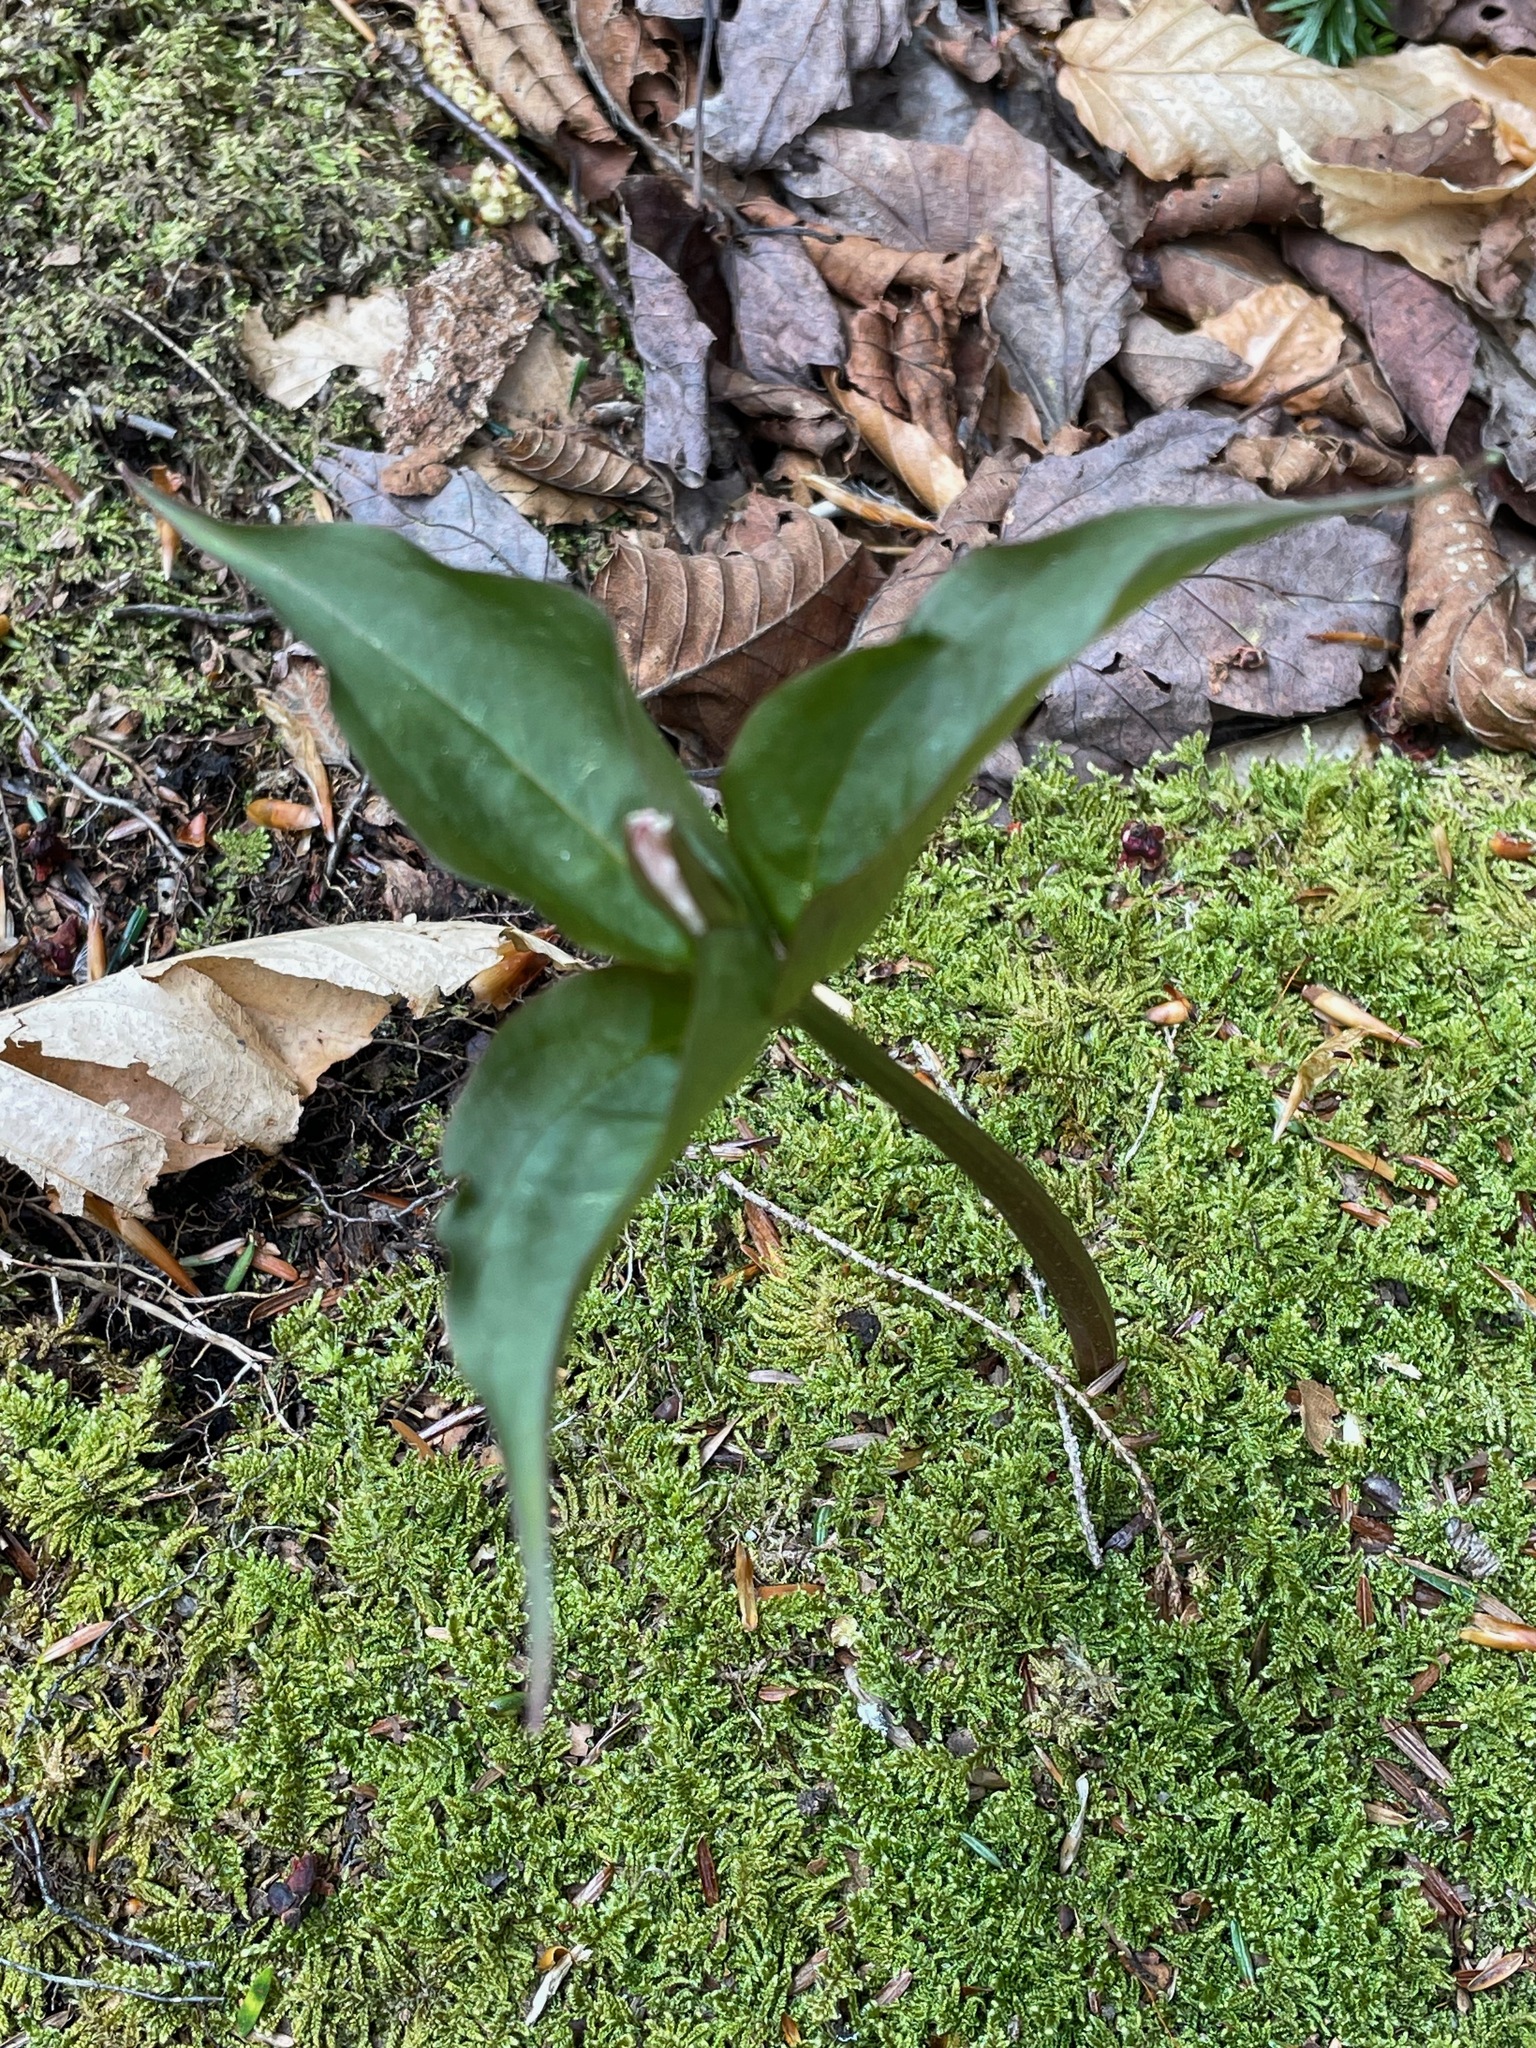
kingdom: Plantae
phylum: Tracheophyta
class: Liliopsida
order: Liliales
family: Melanthiaceae
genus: Trillium
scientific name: Trillium undulatum
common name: Paint trillium
